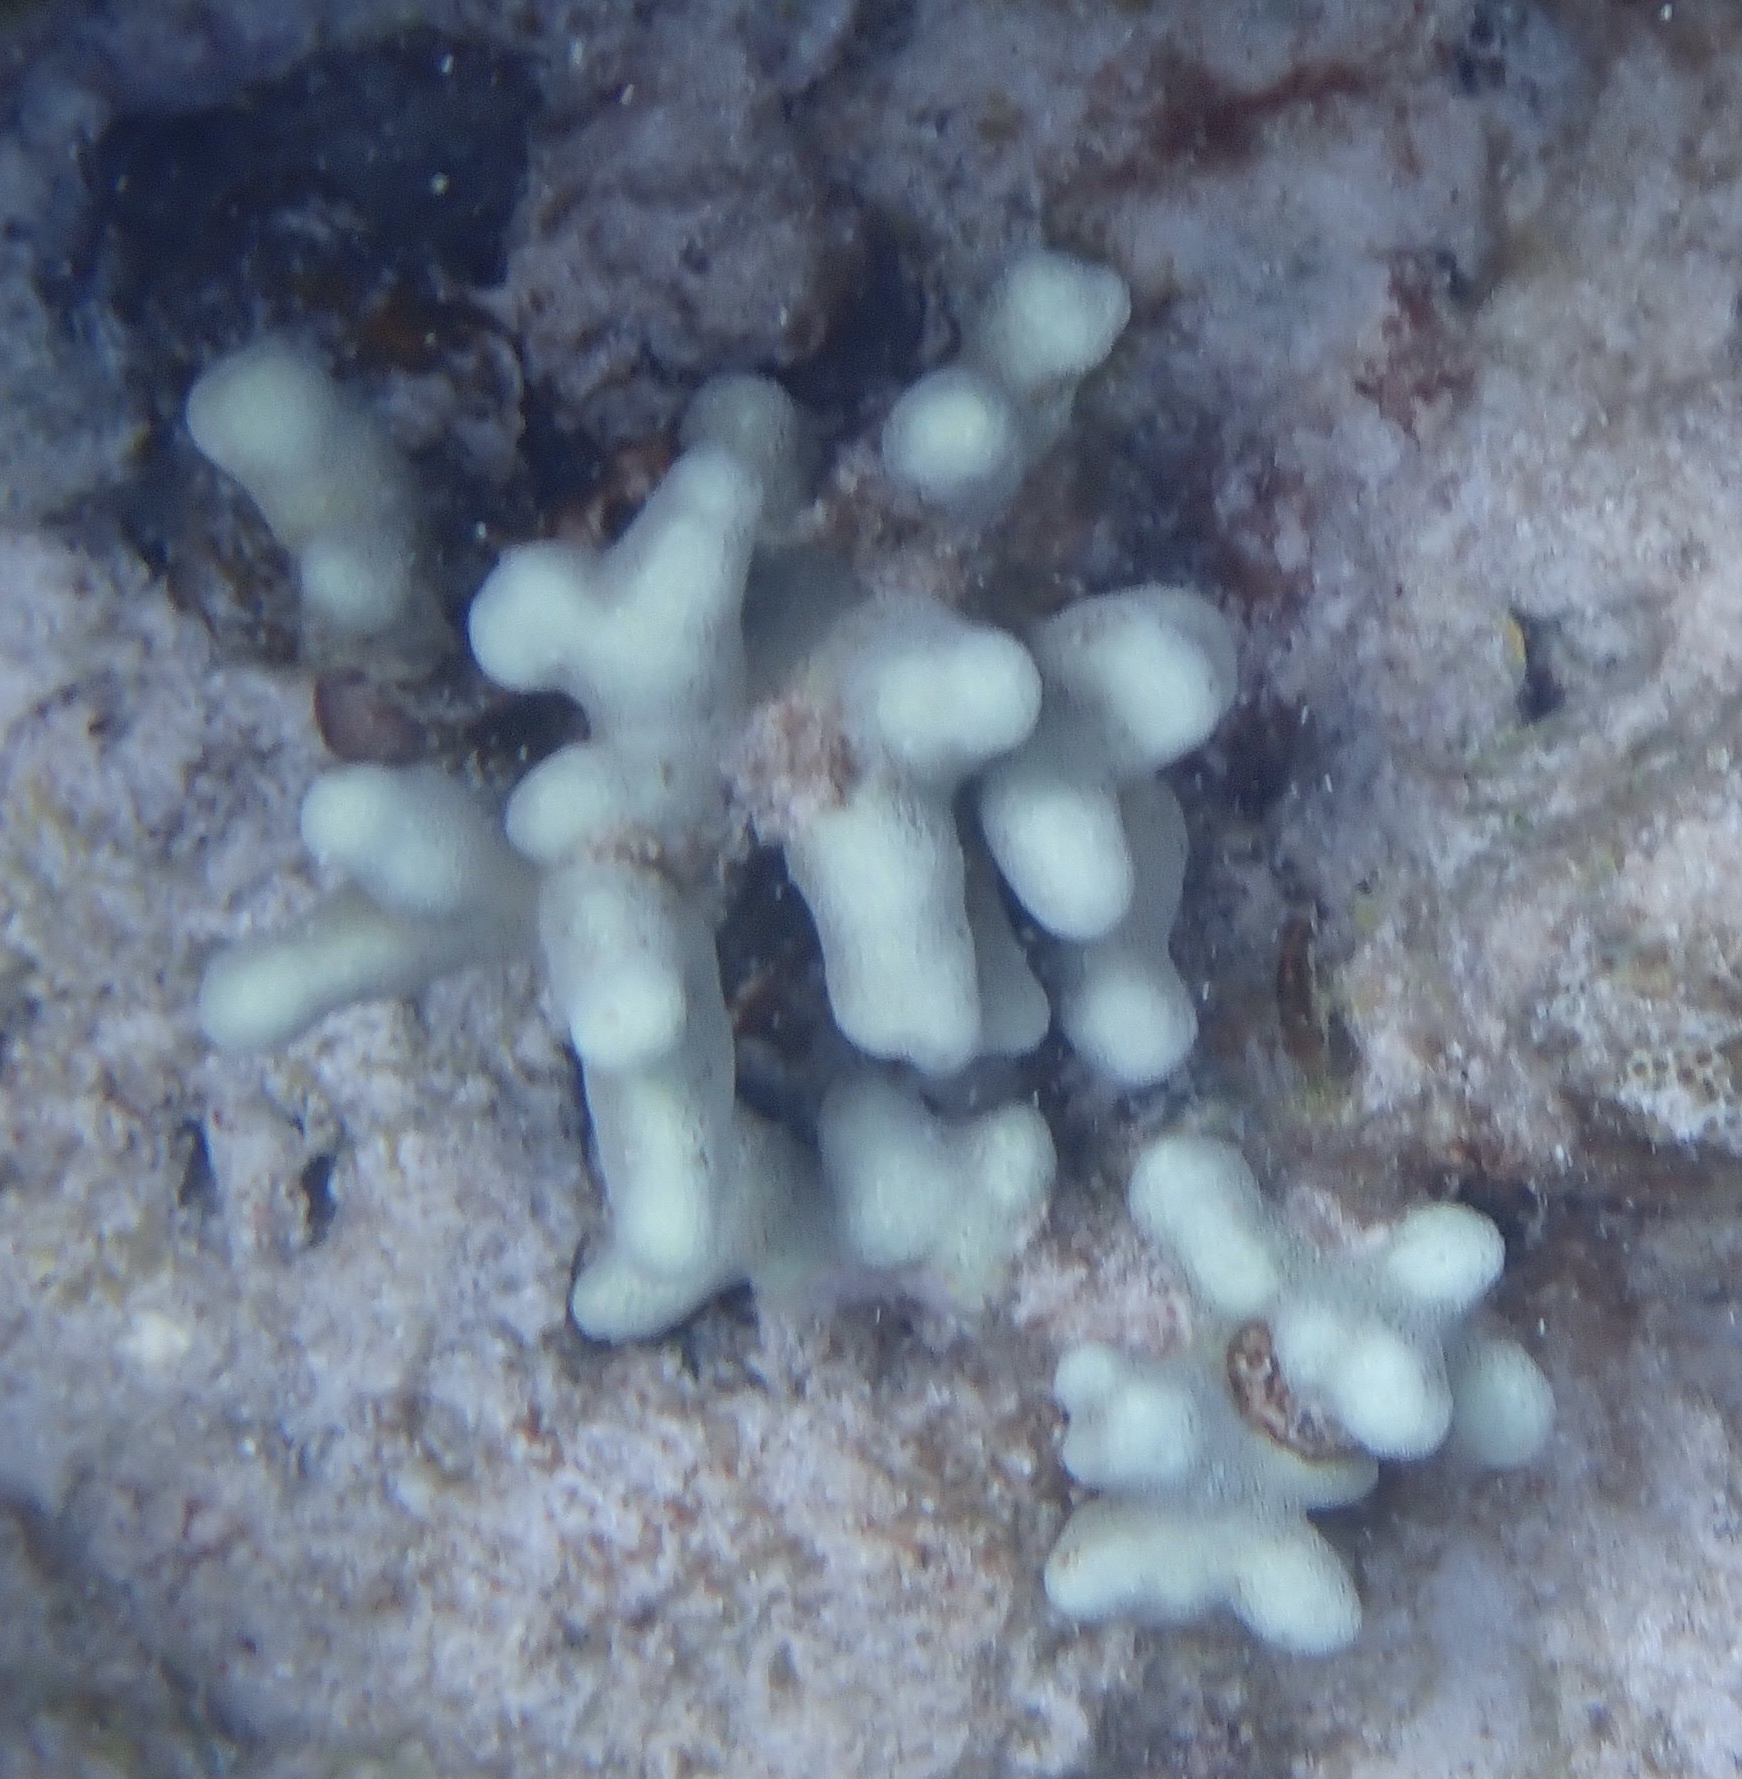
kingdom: Animalia
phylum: Cnidaria
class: Anthozoa
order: Scleractinia
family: Poritidae
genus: Porites
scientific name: Porites porites
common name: Finger coral
